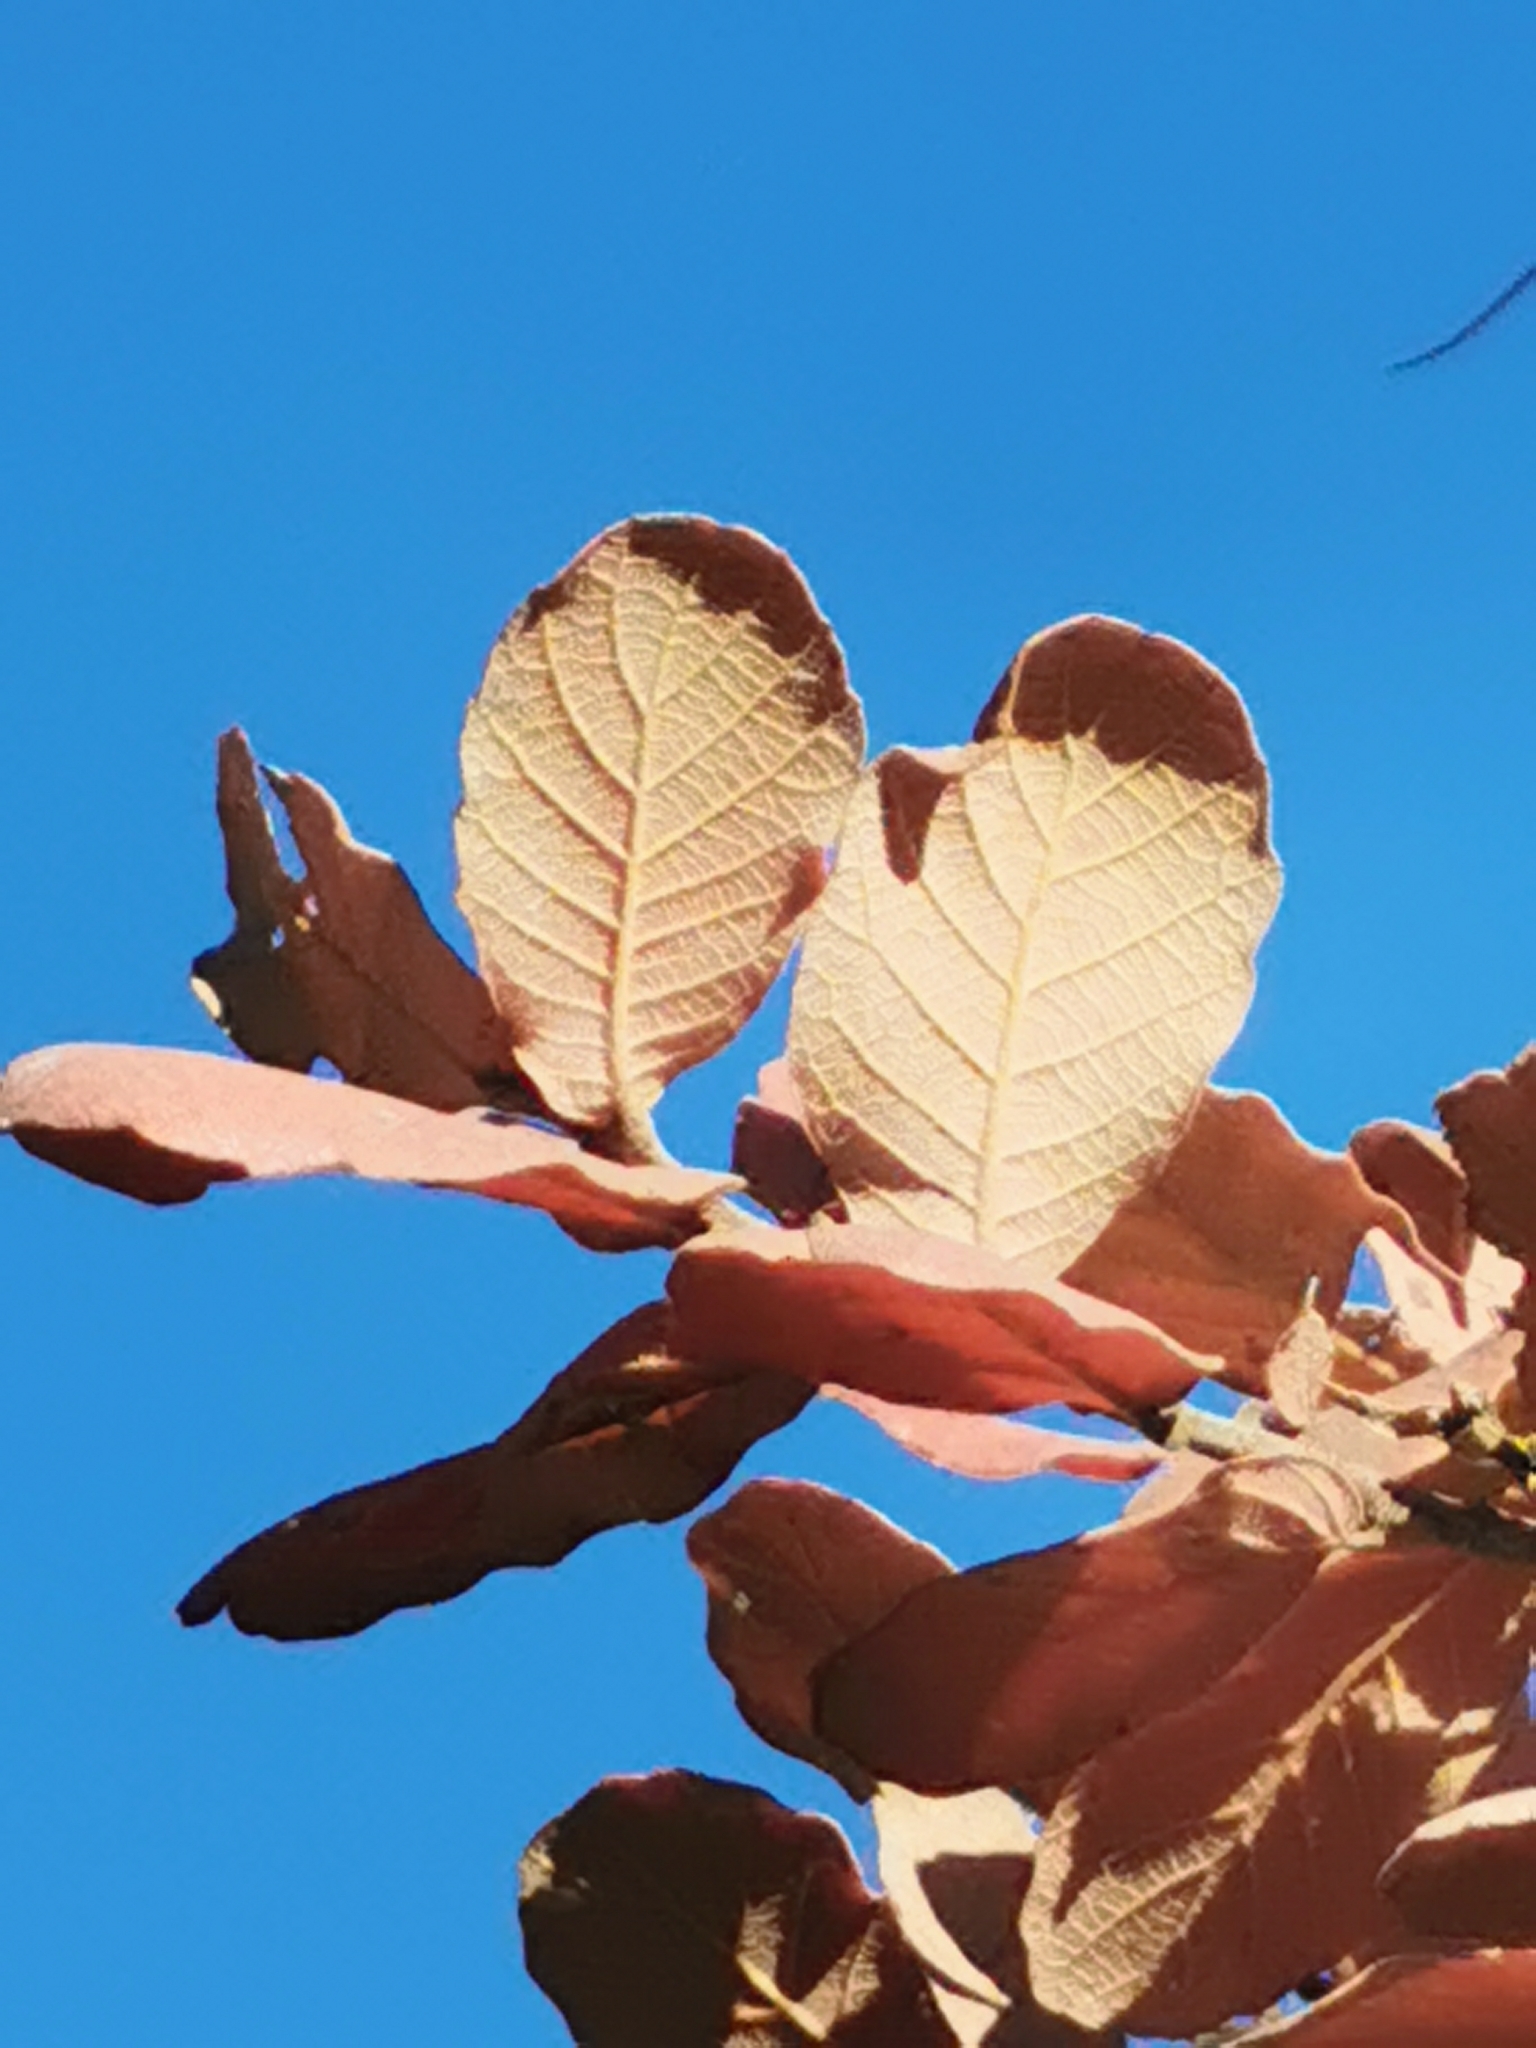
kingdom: Plantae
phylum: Tracheophyta
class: Magnoliopsida
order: Fagales
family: Fagaceae
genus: Quercus
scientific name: Quercus convallata
